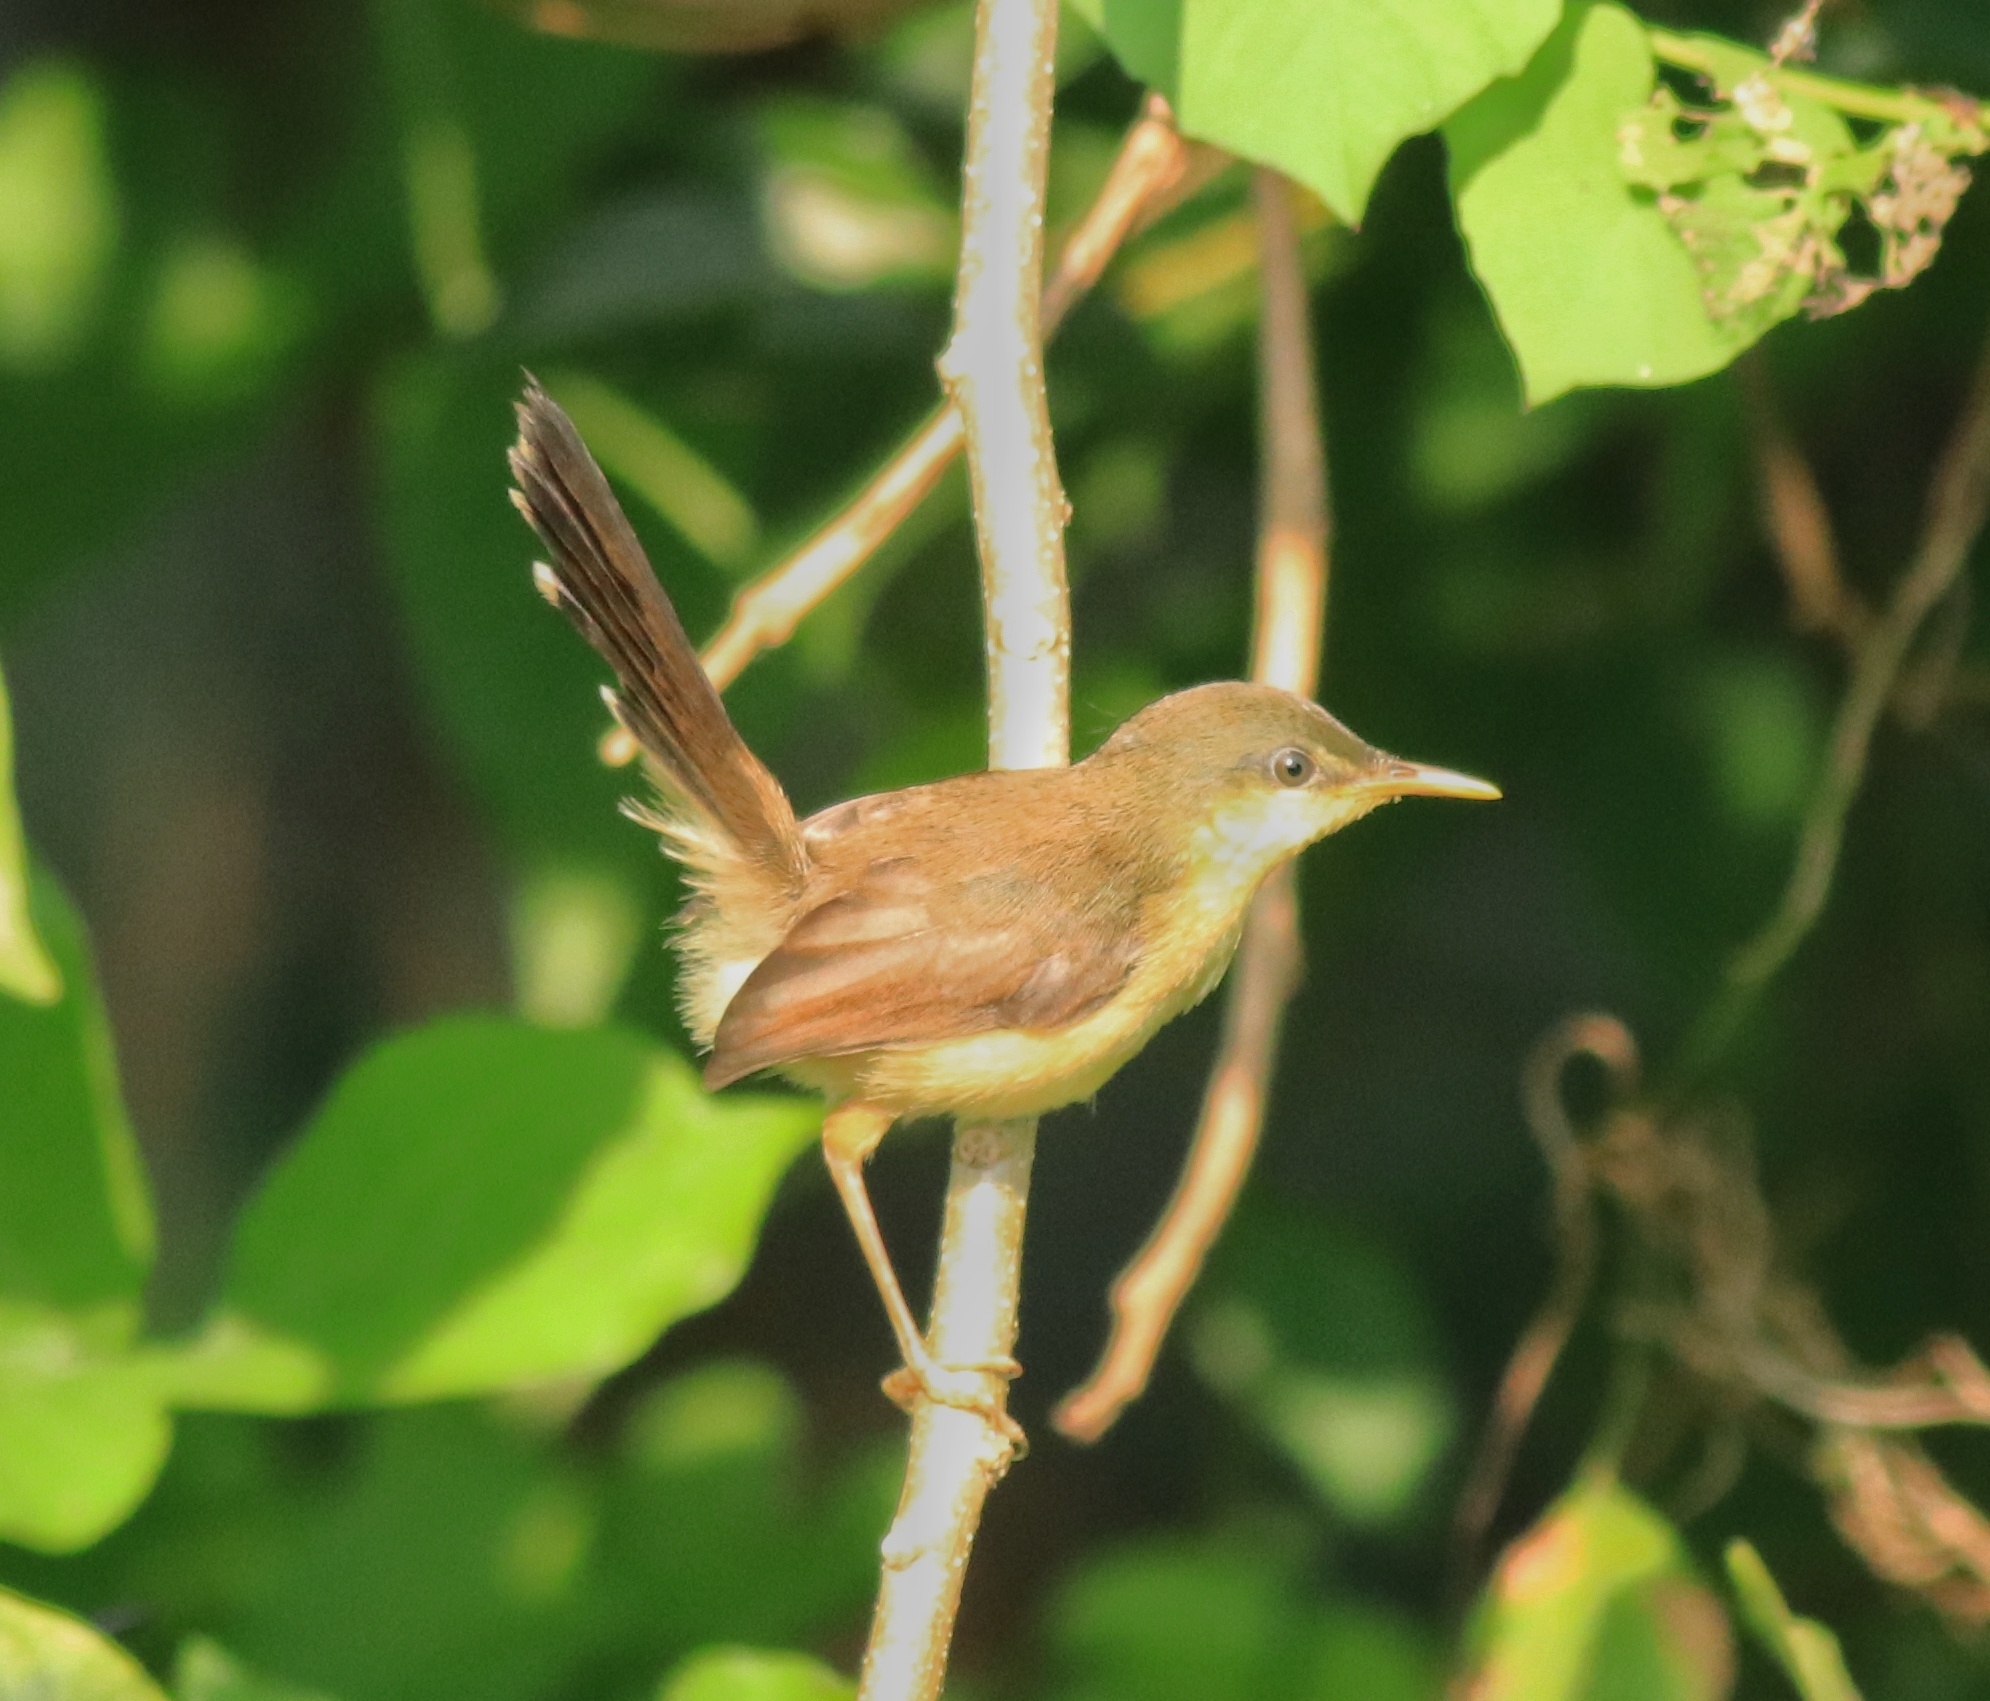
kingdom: Animalia
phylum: Chordata
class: Aves
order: Passeriformes
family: Cisticolidae
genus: Prinia
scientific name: Prinia socialis
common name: Ashy prinia
